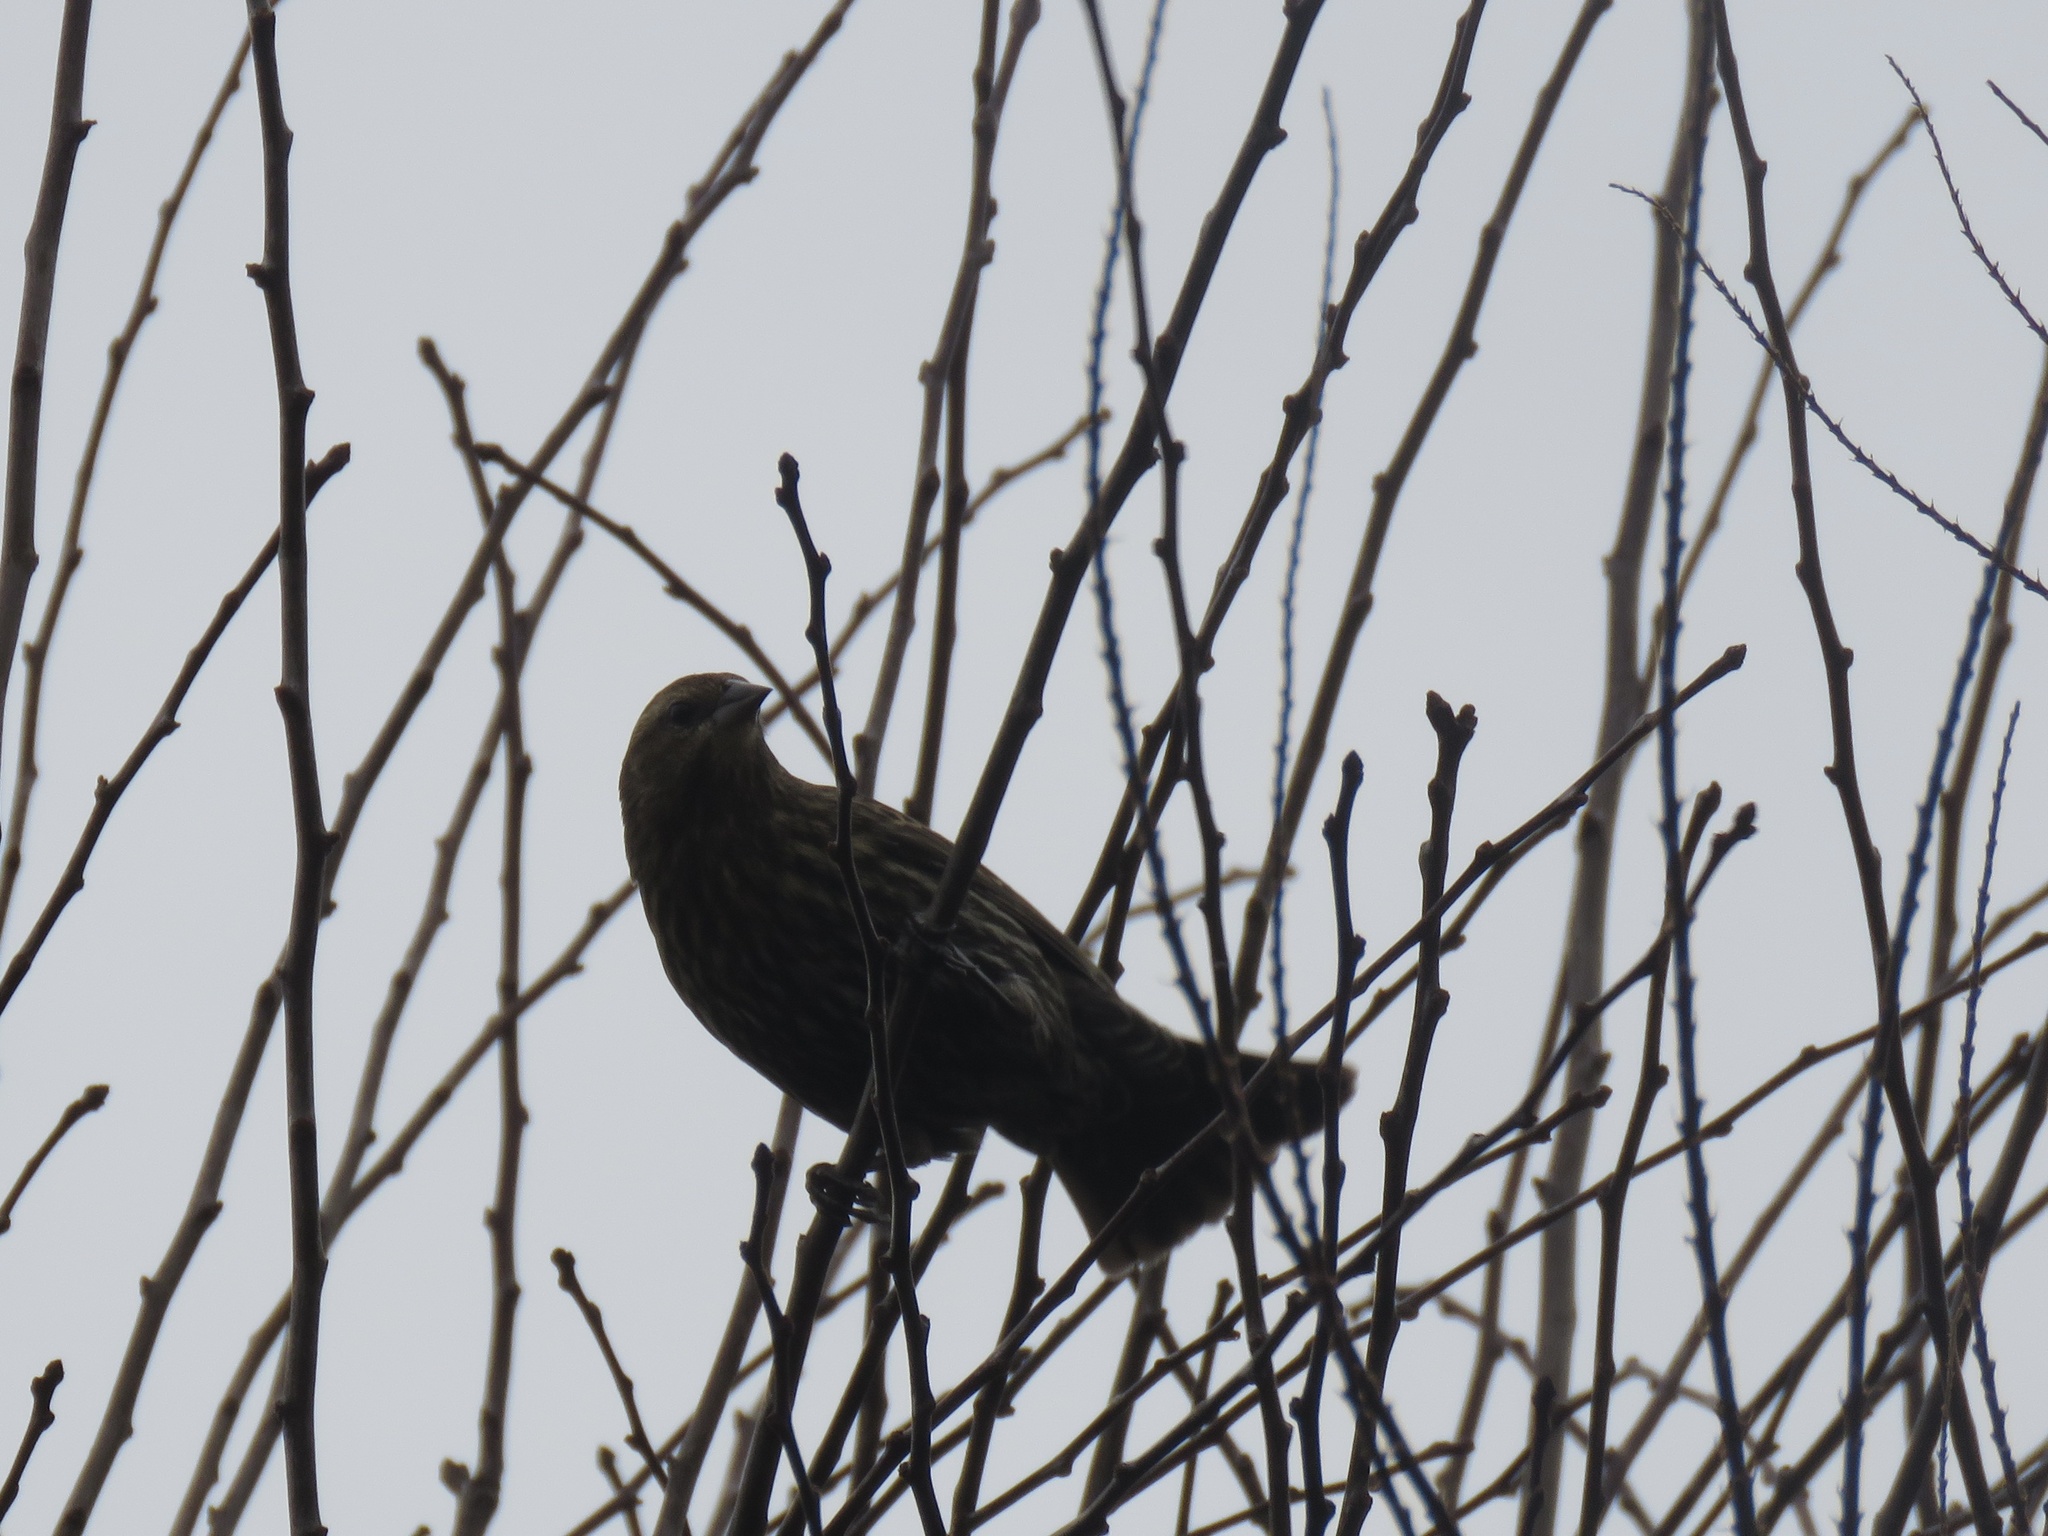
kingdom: Animalia
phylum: Chordata
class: Aves
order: Passeriformes
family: Icteridae
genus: Agelaius
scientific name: Agelaius phoeniceus
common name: Red-winged blackbird
